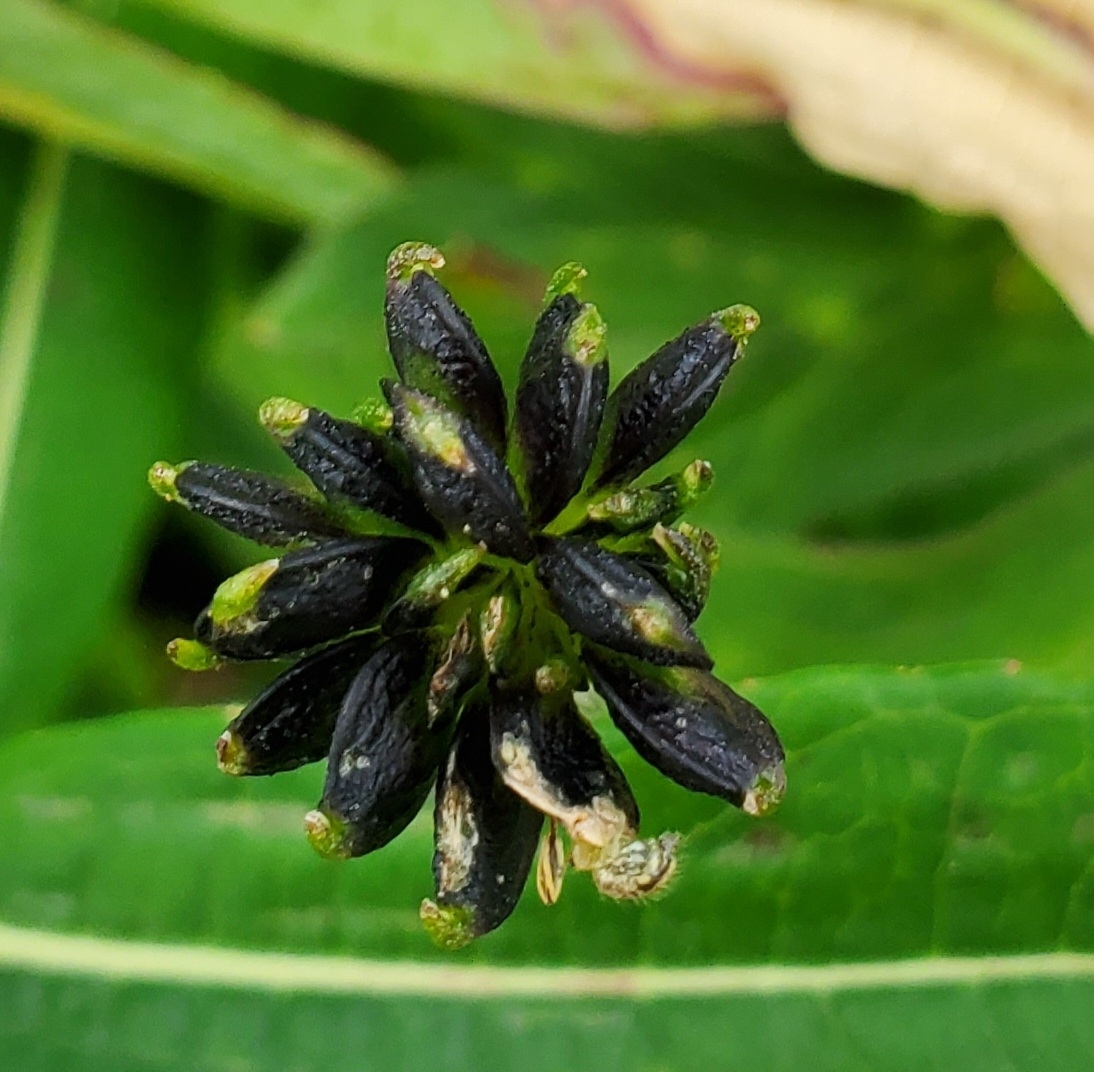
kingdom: Plantae
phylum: Tracheophyta
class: Magnoliopsida
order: Ranunculales
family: Ranunculaceae
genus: Anemonastrum
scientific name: Anemonastrum narcissiflorum
